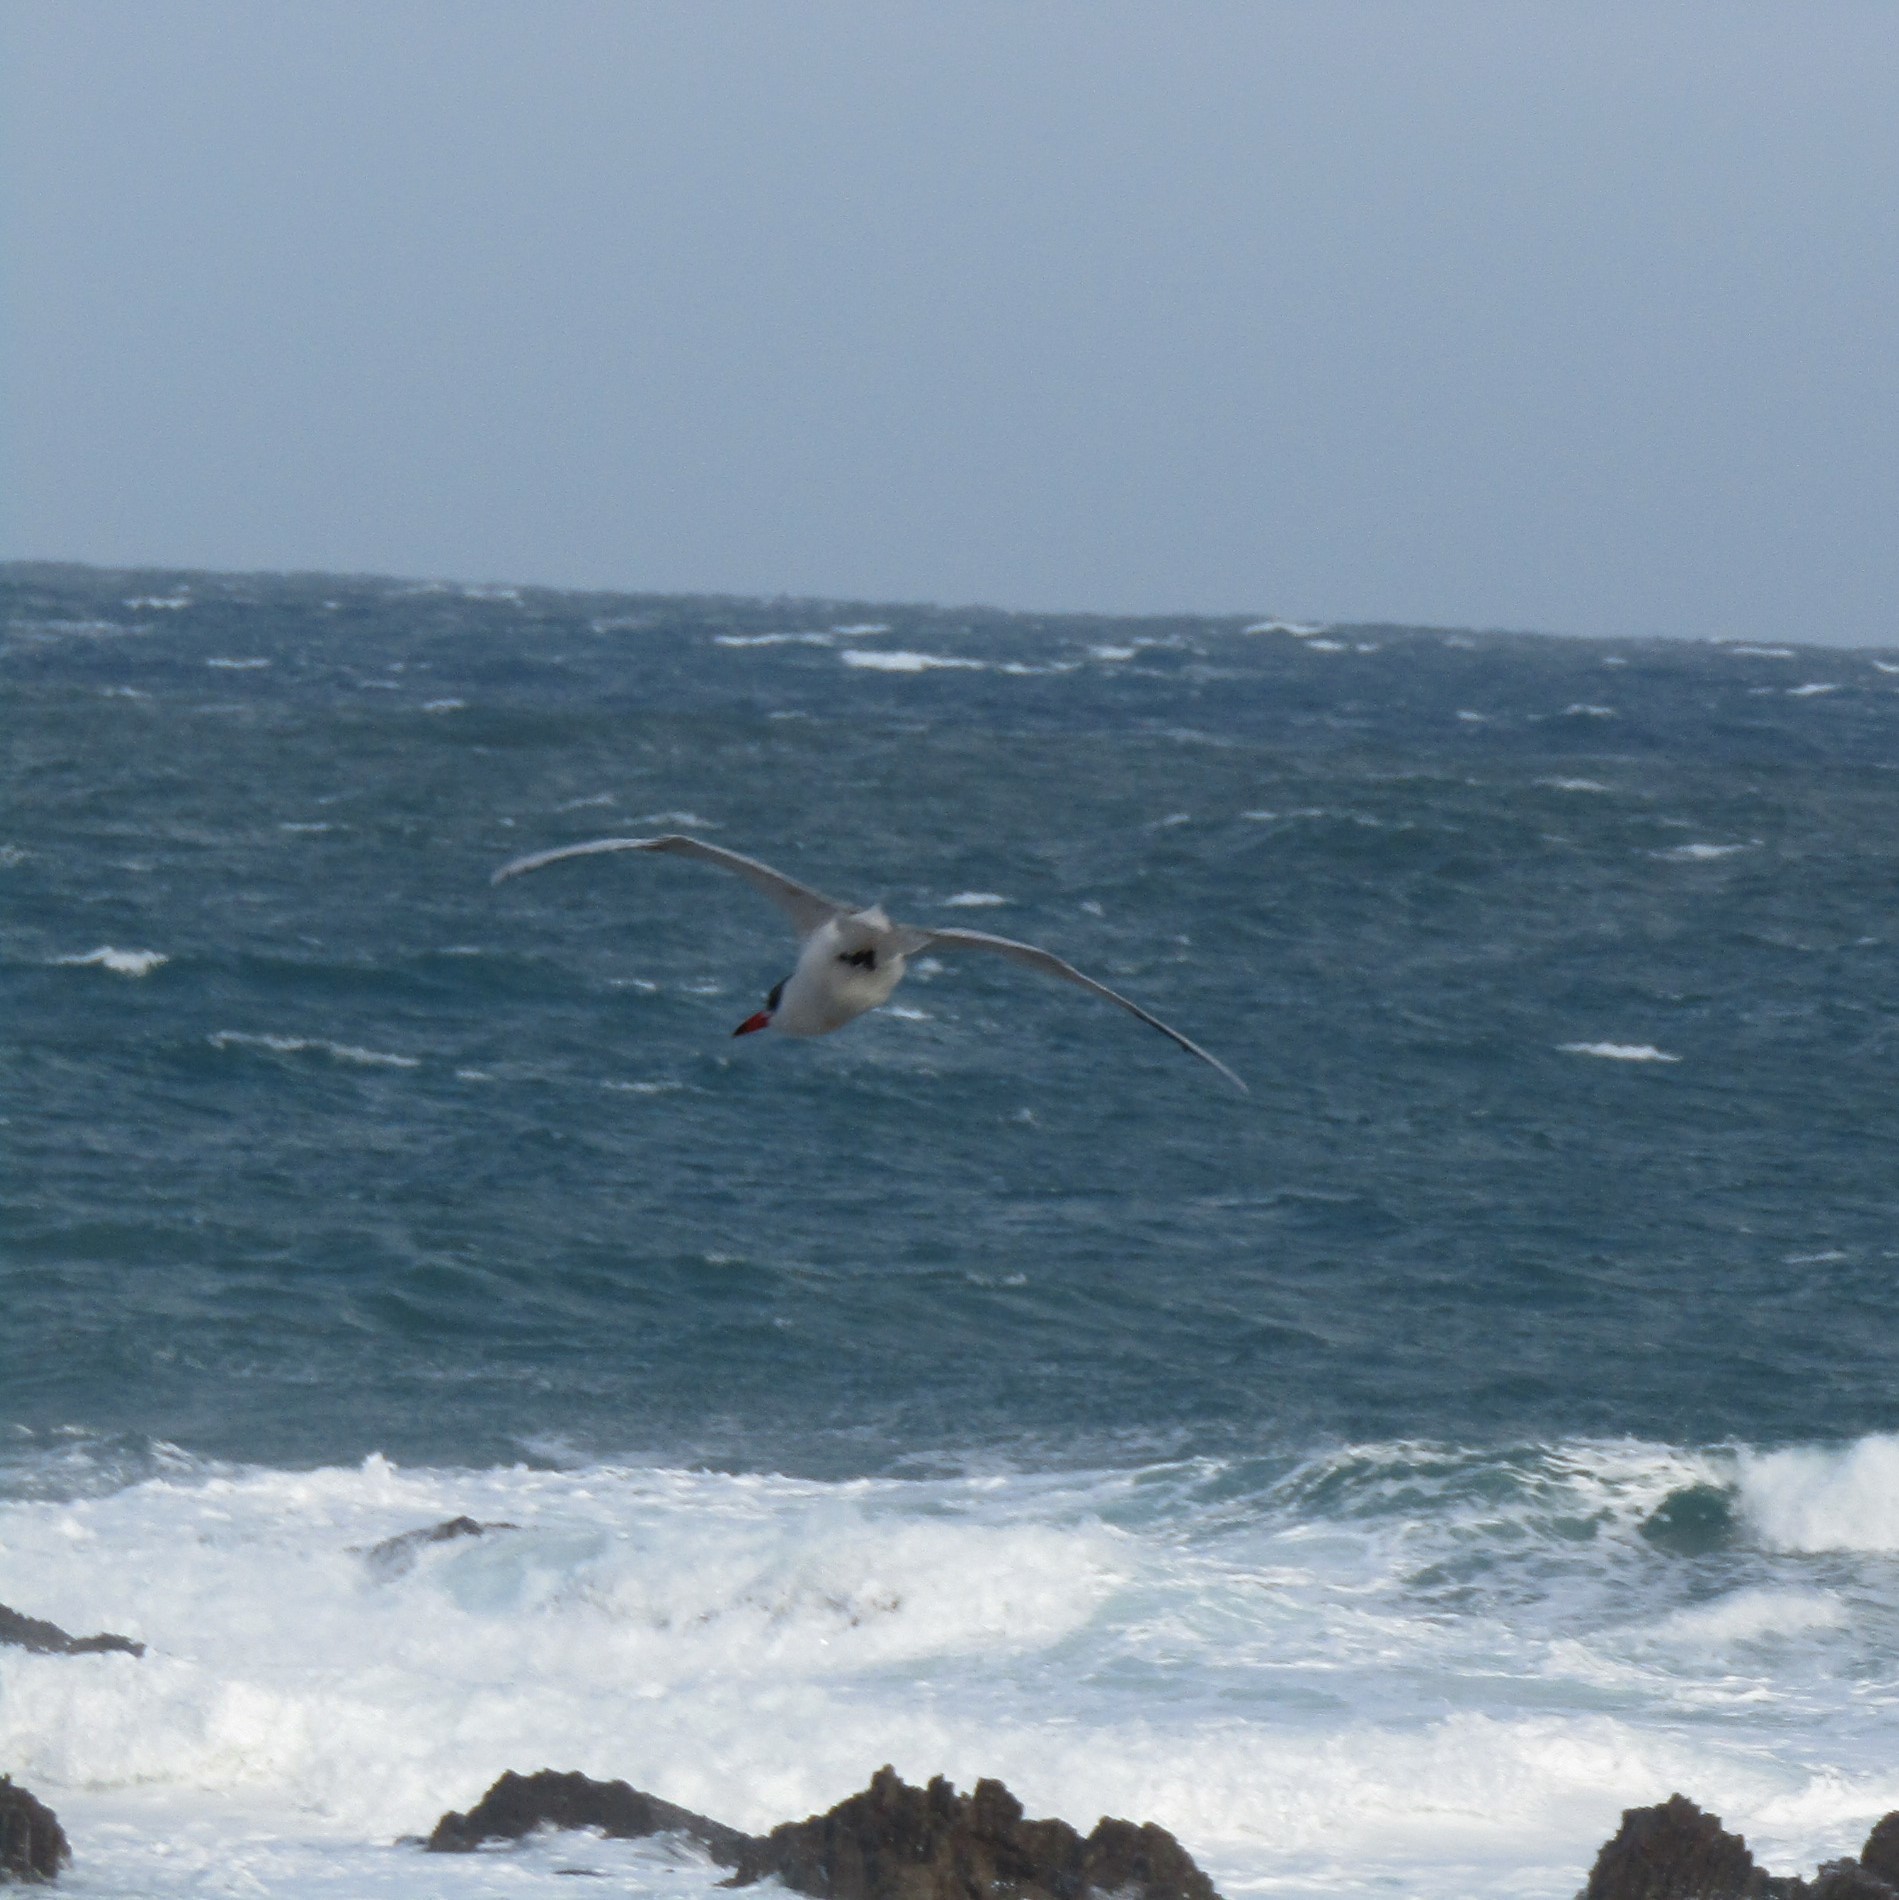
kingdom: Animalia
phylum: Chordata
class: Aves
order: Charadriiformes
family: Laridae
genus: Hydroprogne
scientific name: Hydroprogne caspia
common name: Caspian tern
